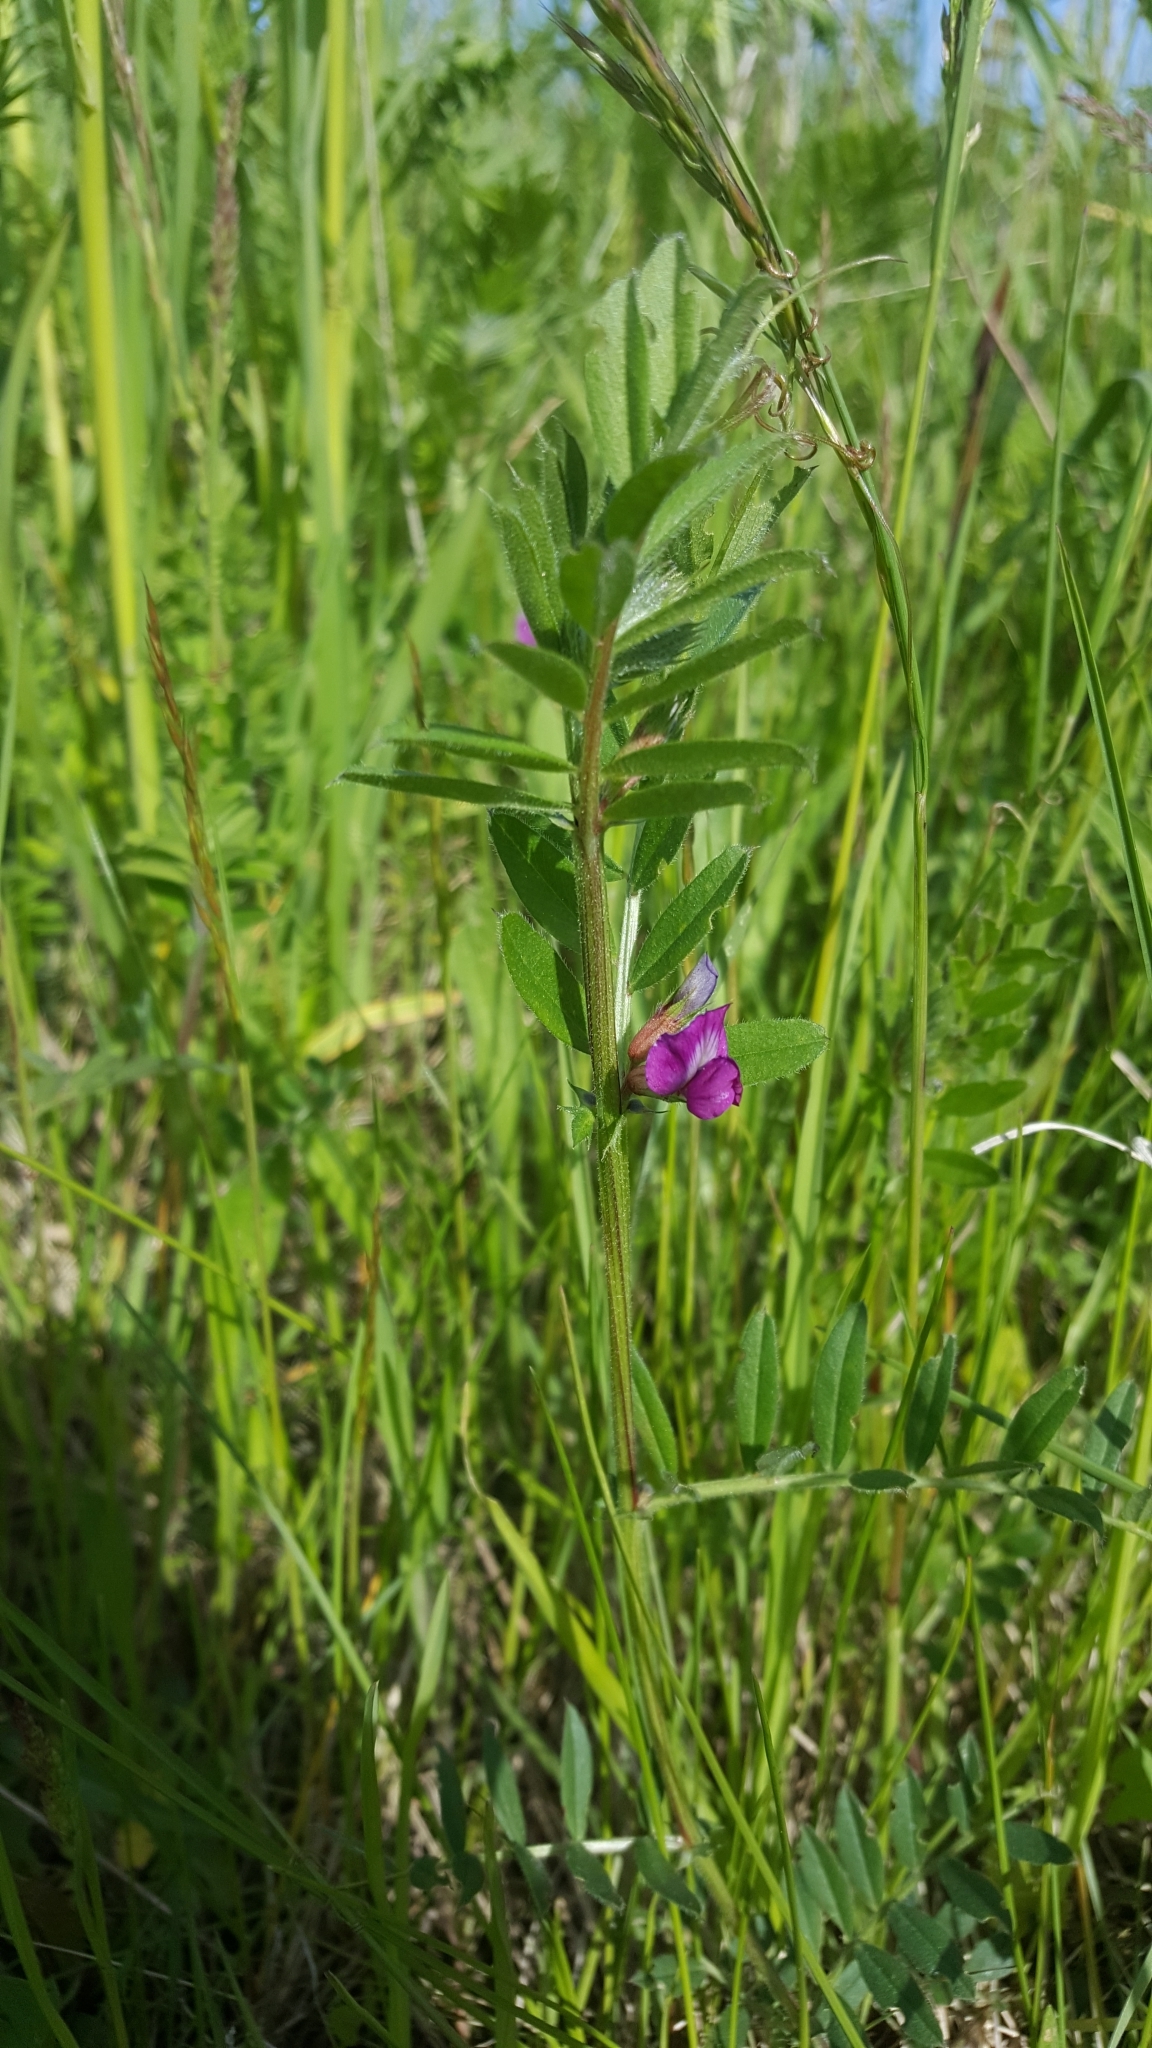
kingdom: Plantae
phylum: Tracheophyta
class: Magnoliopsida
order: Fabales
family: Fabaceae
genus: Vicia
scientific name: Vicia sativa
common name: Garden vetch
